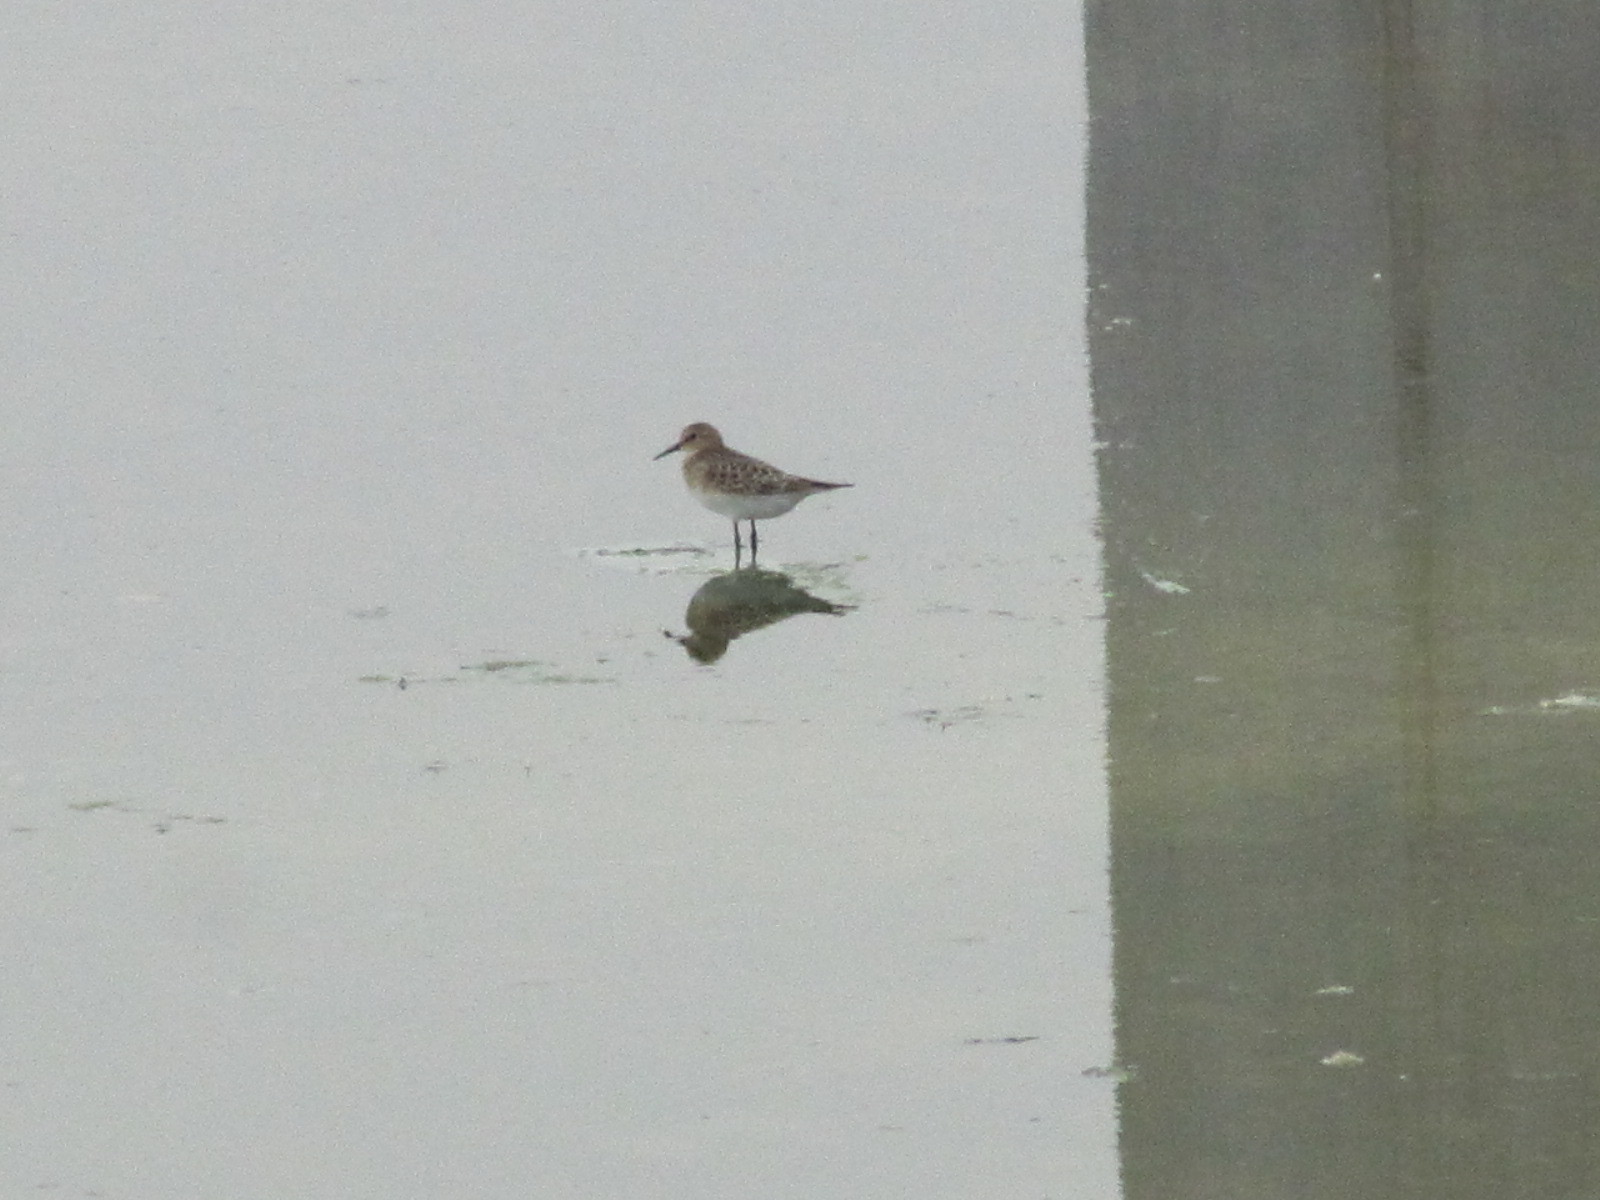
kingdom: Animalia
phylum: Chordata
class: Aves
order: Charadriiformes
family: Scolopacidae
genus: Calidris
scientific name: Calidris bairdii
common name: Baird's sandpiper
